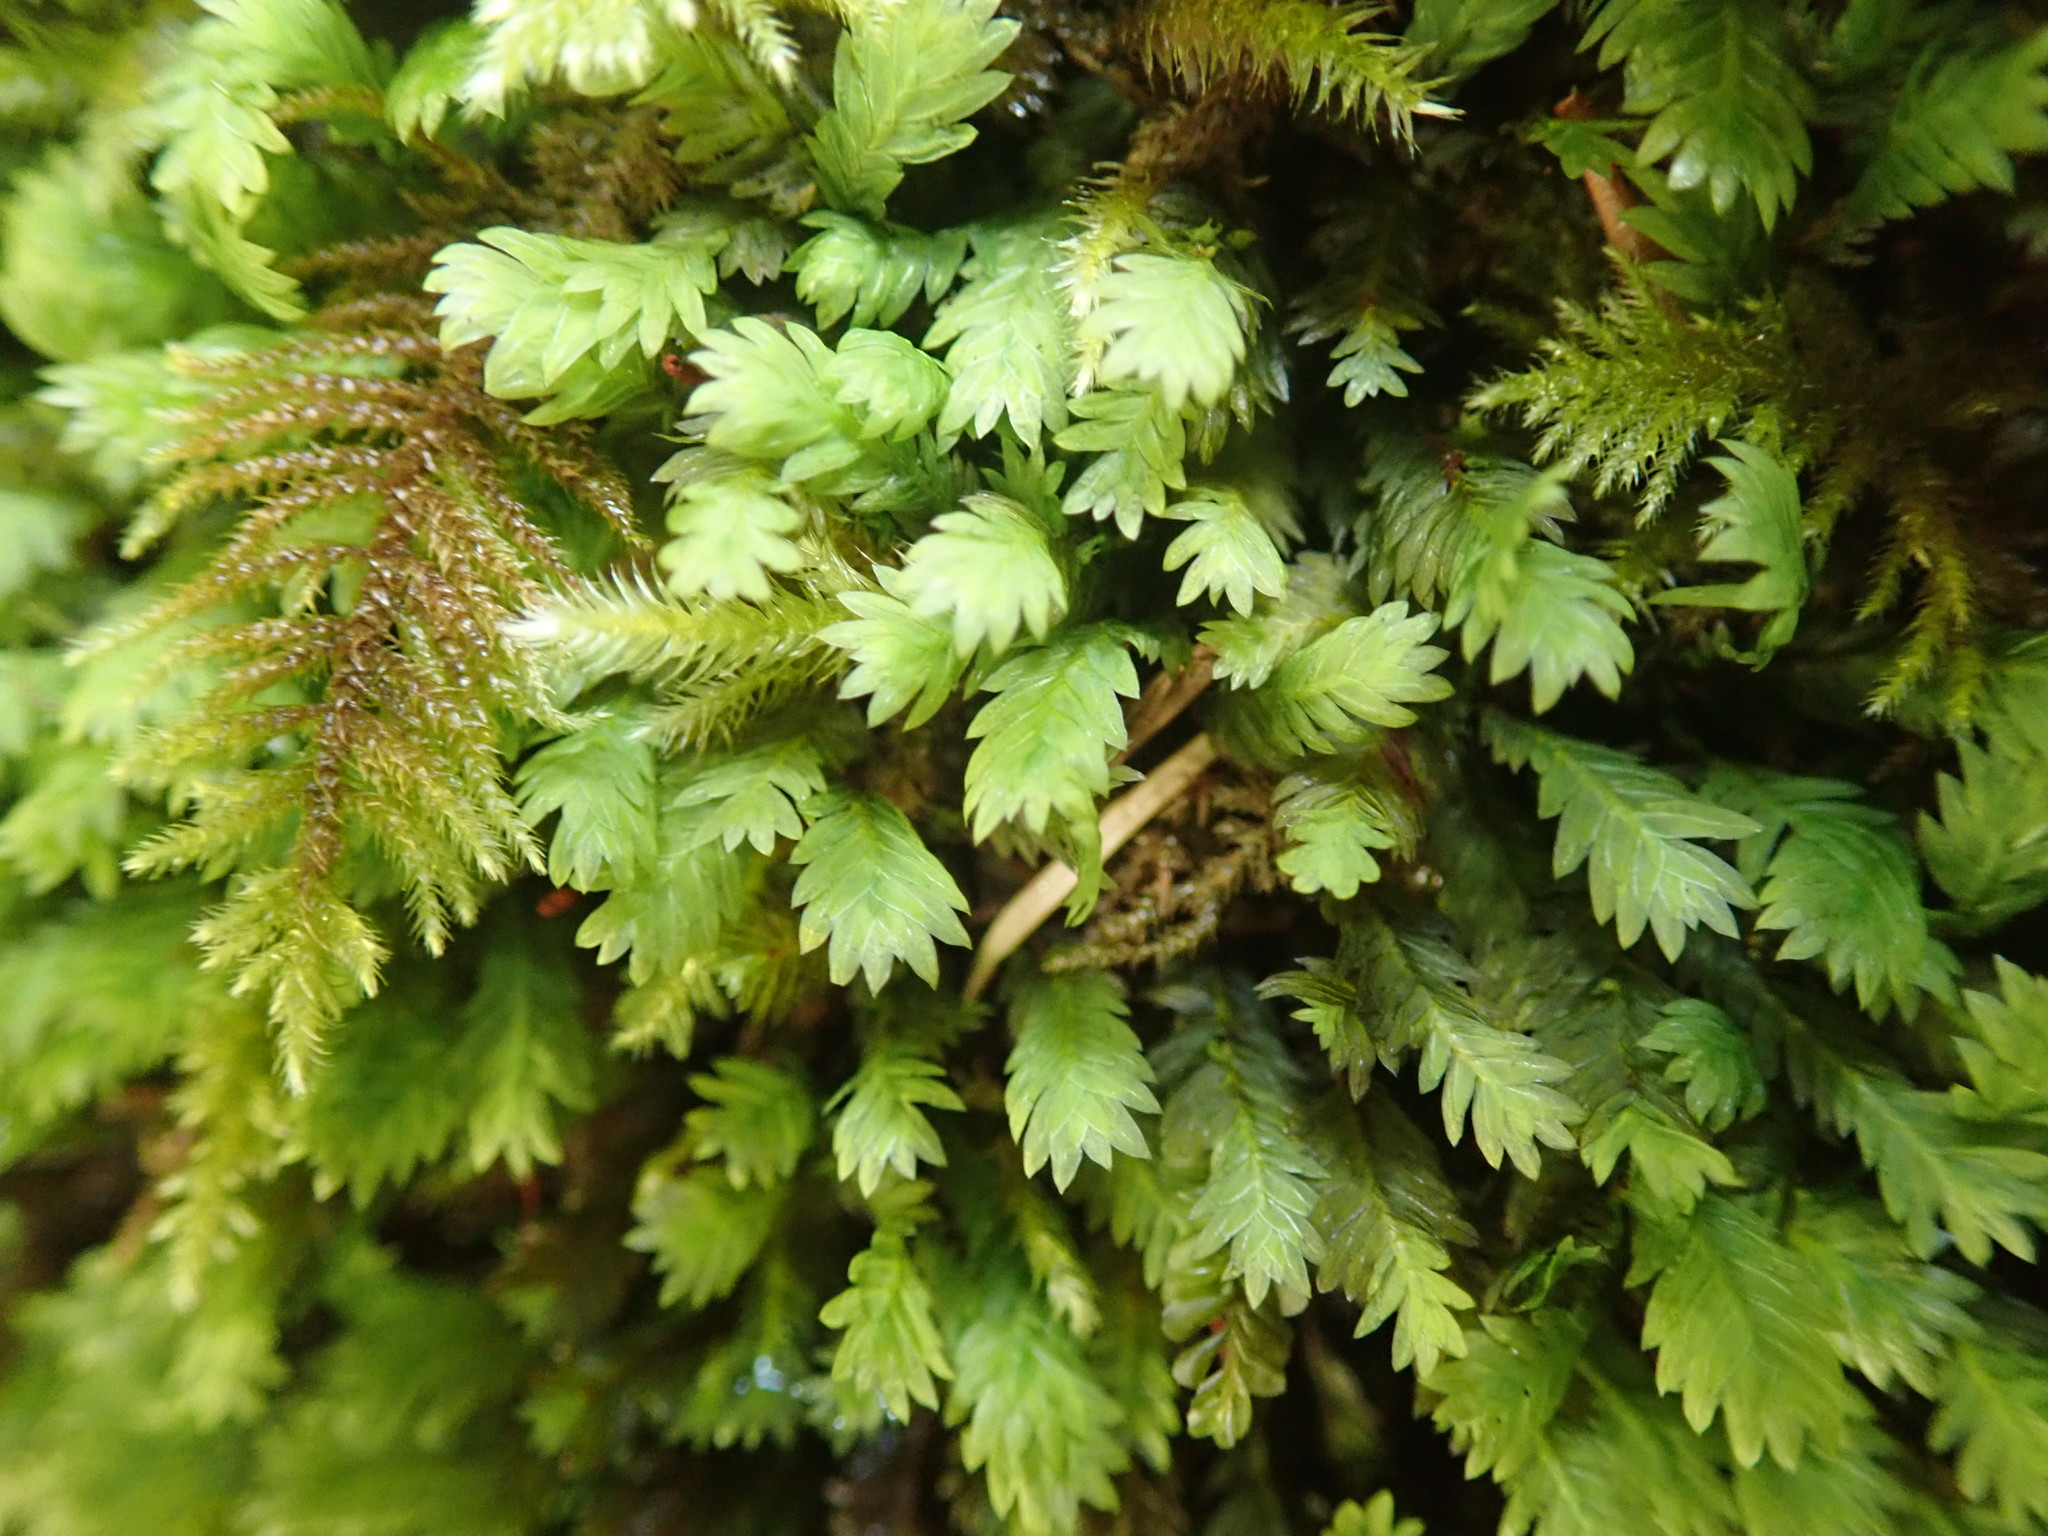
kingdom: Plantae
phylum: Bryophyta
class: Bryopsida
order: Dicranales
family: Fissidentaceae
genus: Fissidens
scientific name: Fissidens adianthoides
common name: Maidenhair pocket moss
